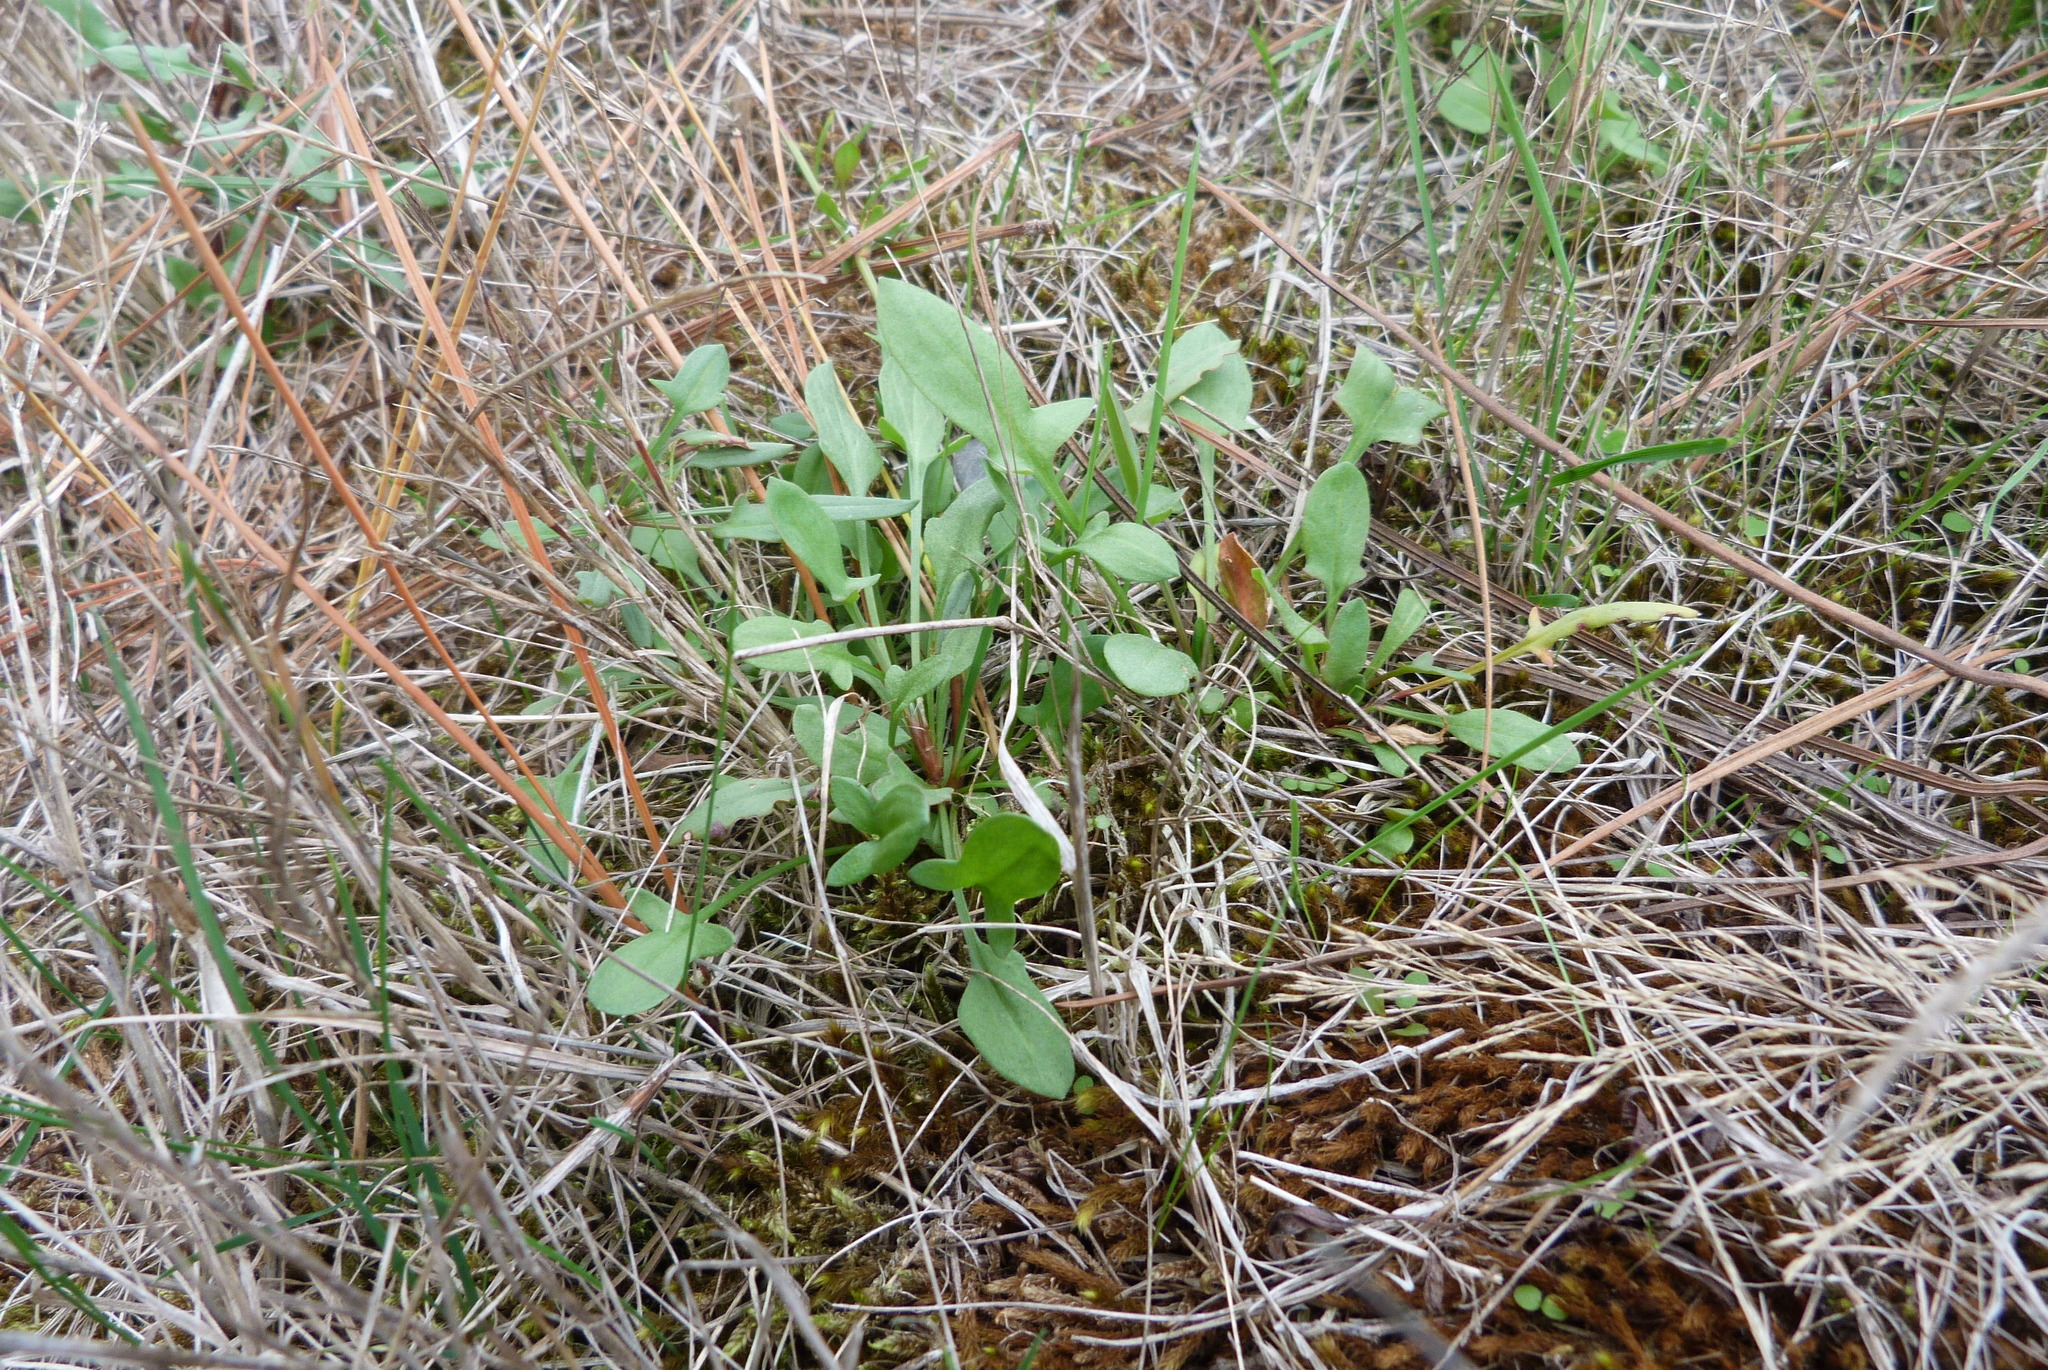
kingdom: Plantae
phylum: Tracheophyta
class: Magnoliopsida
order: Caryophyllales
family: Polygonaceae
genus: Rumex
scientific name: Rumex acetosella
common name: Common sheep sorrel
